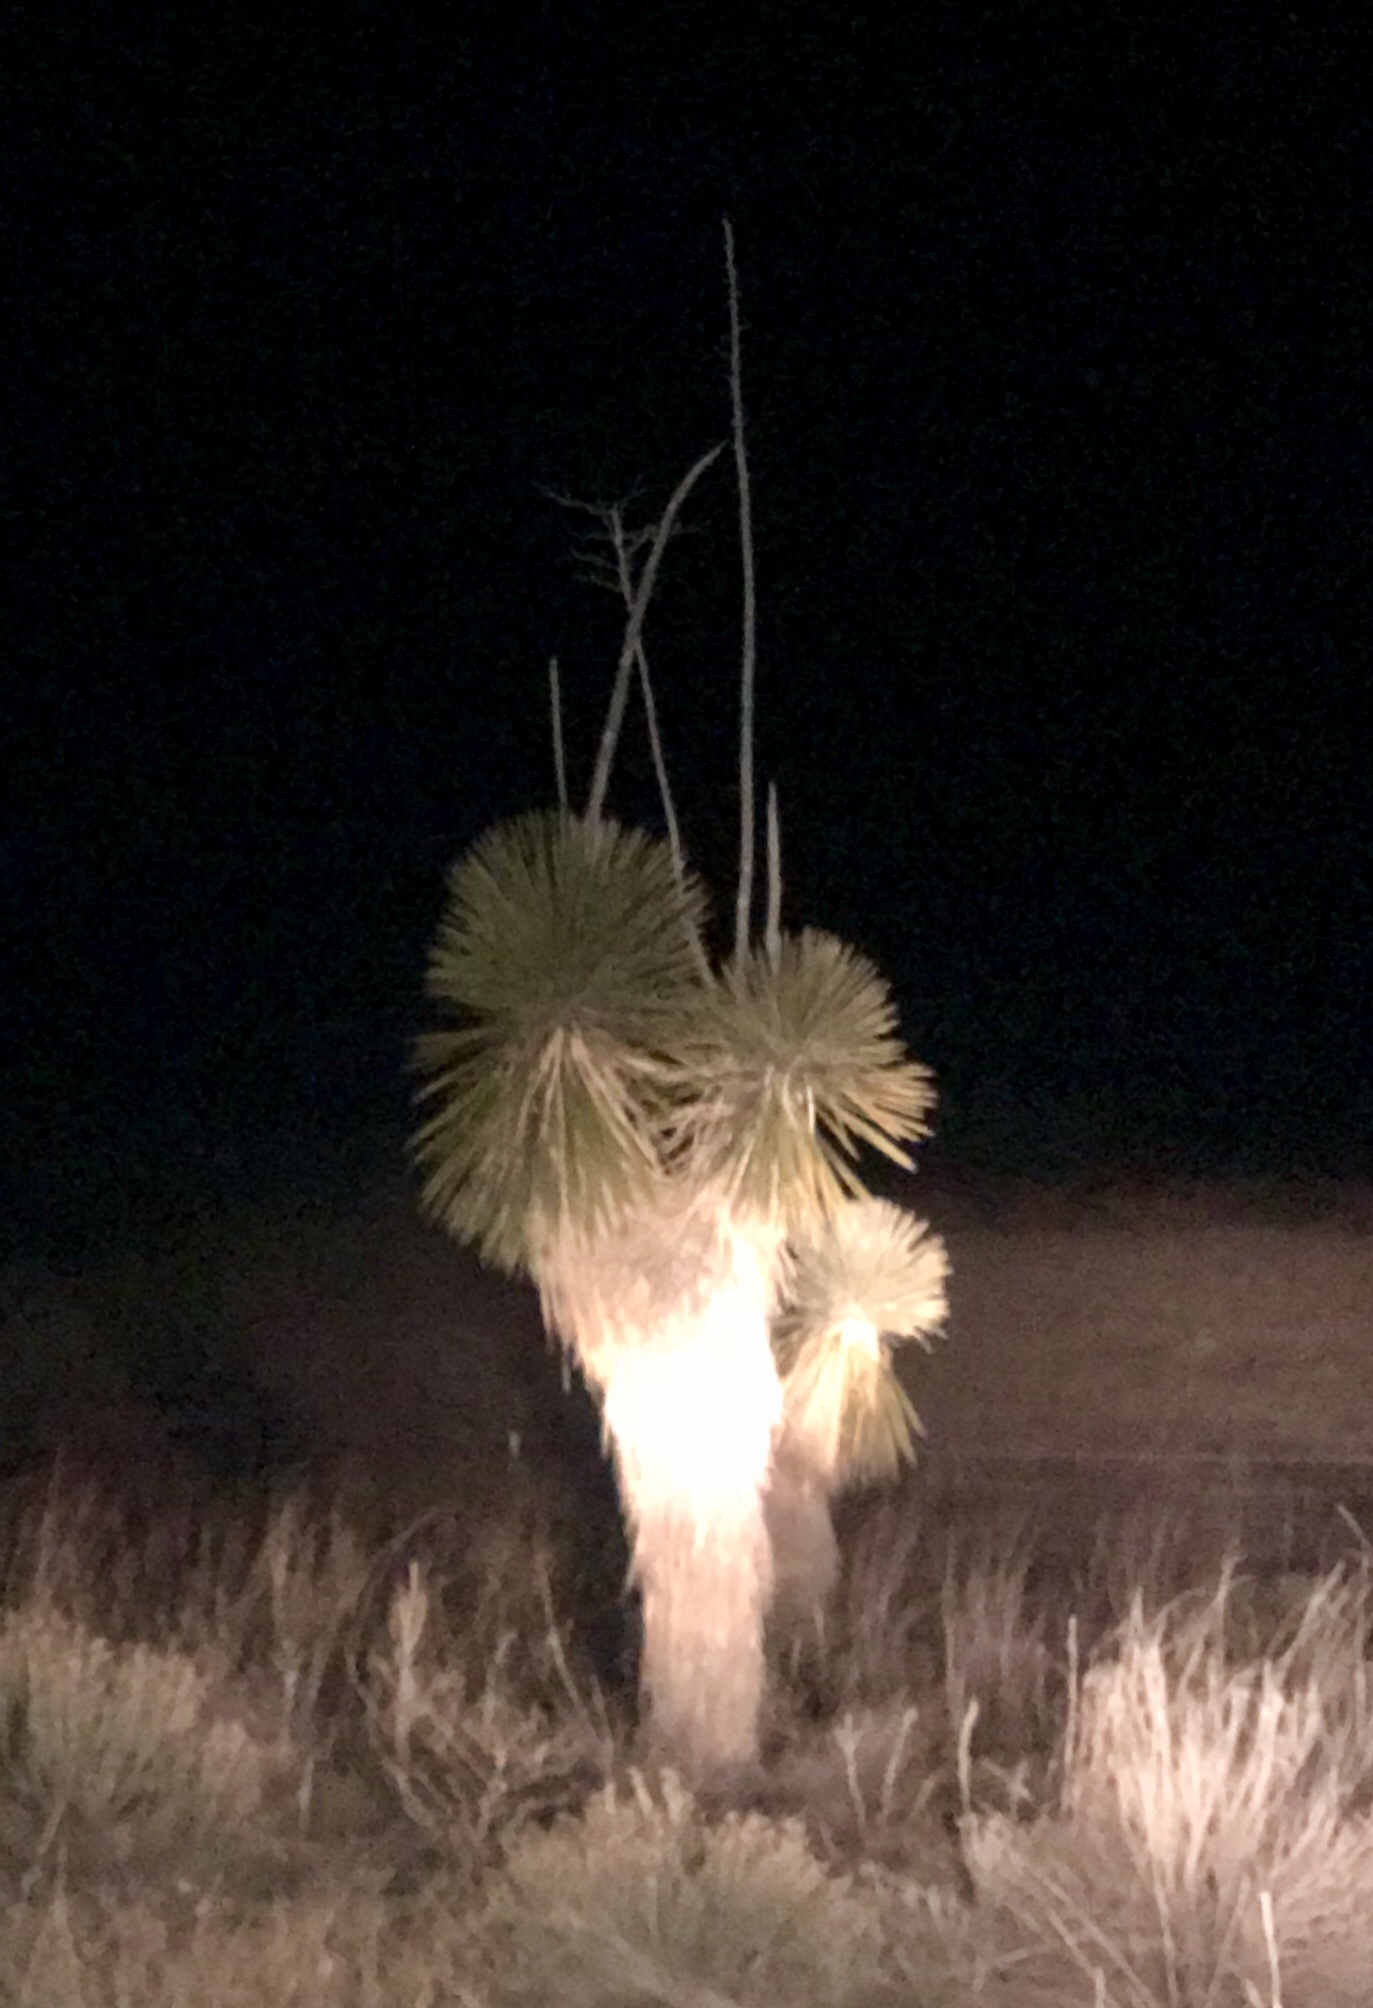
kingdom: Plantae
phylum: Tracheophyta
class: Liliopsida
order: Asparagales
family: Asparagaceae
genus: Yucca
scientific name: Yucca elata
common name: Palmella
